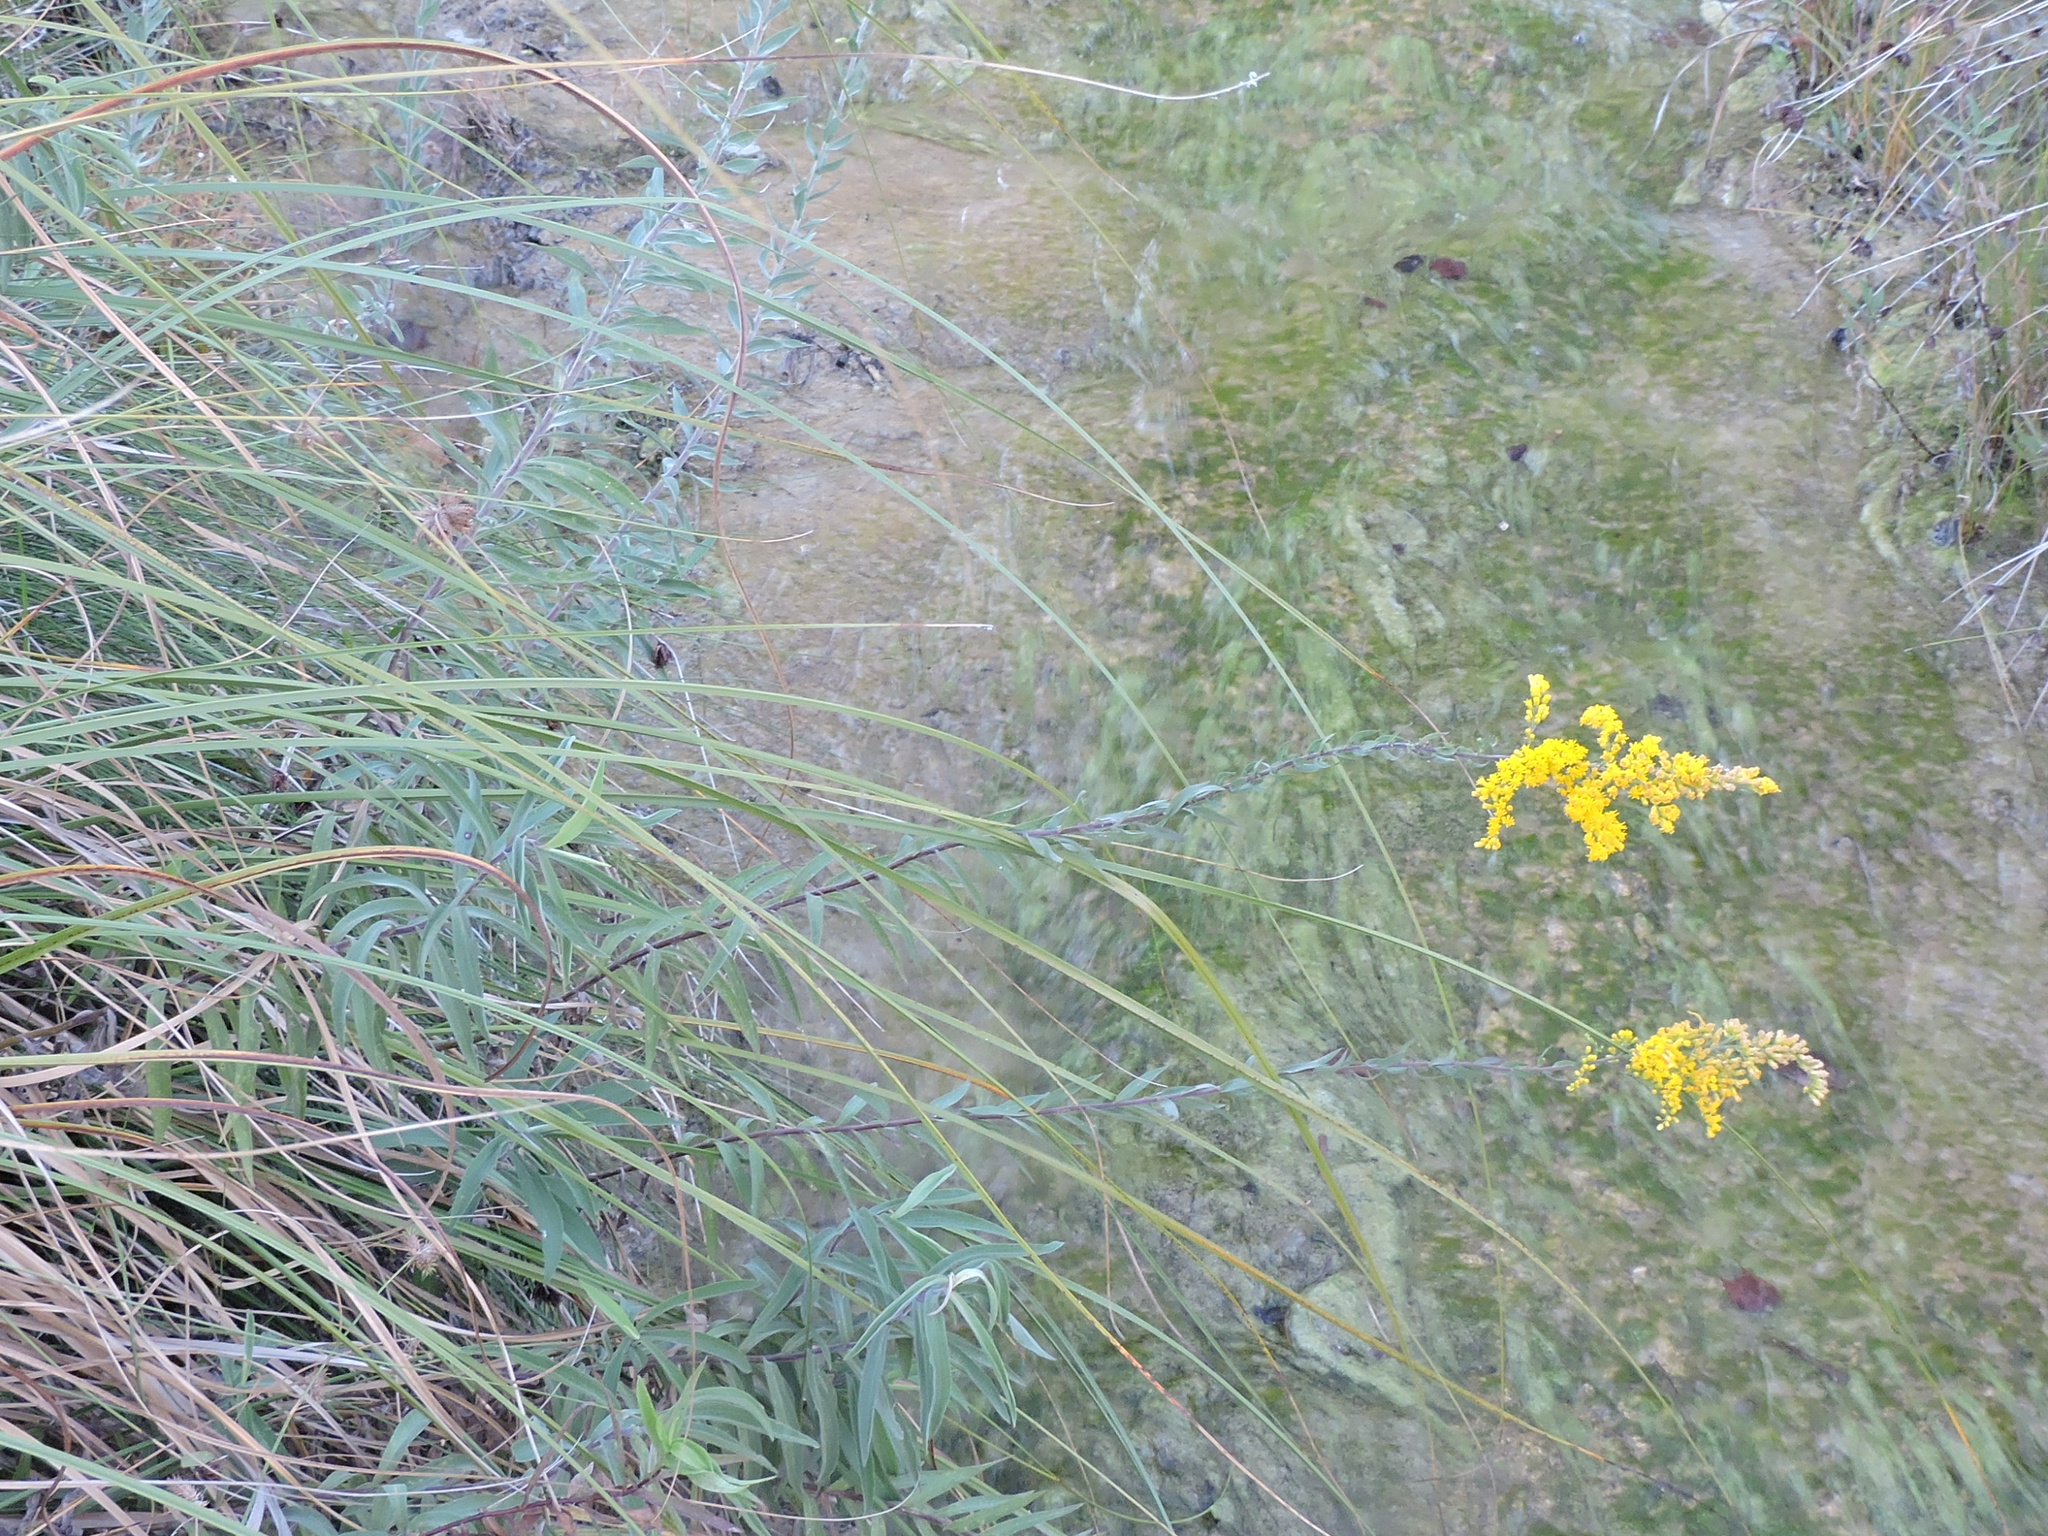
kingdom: Plantae
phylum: Tracheophyta
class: Magnoliopsida
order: Asterales
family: Asteraceae
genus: Solidago
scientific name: Solidago juliae
